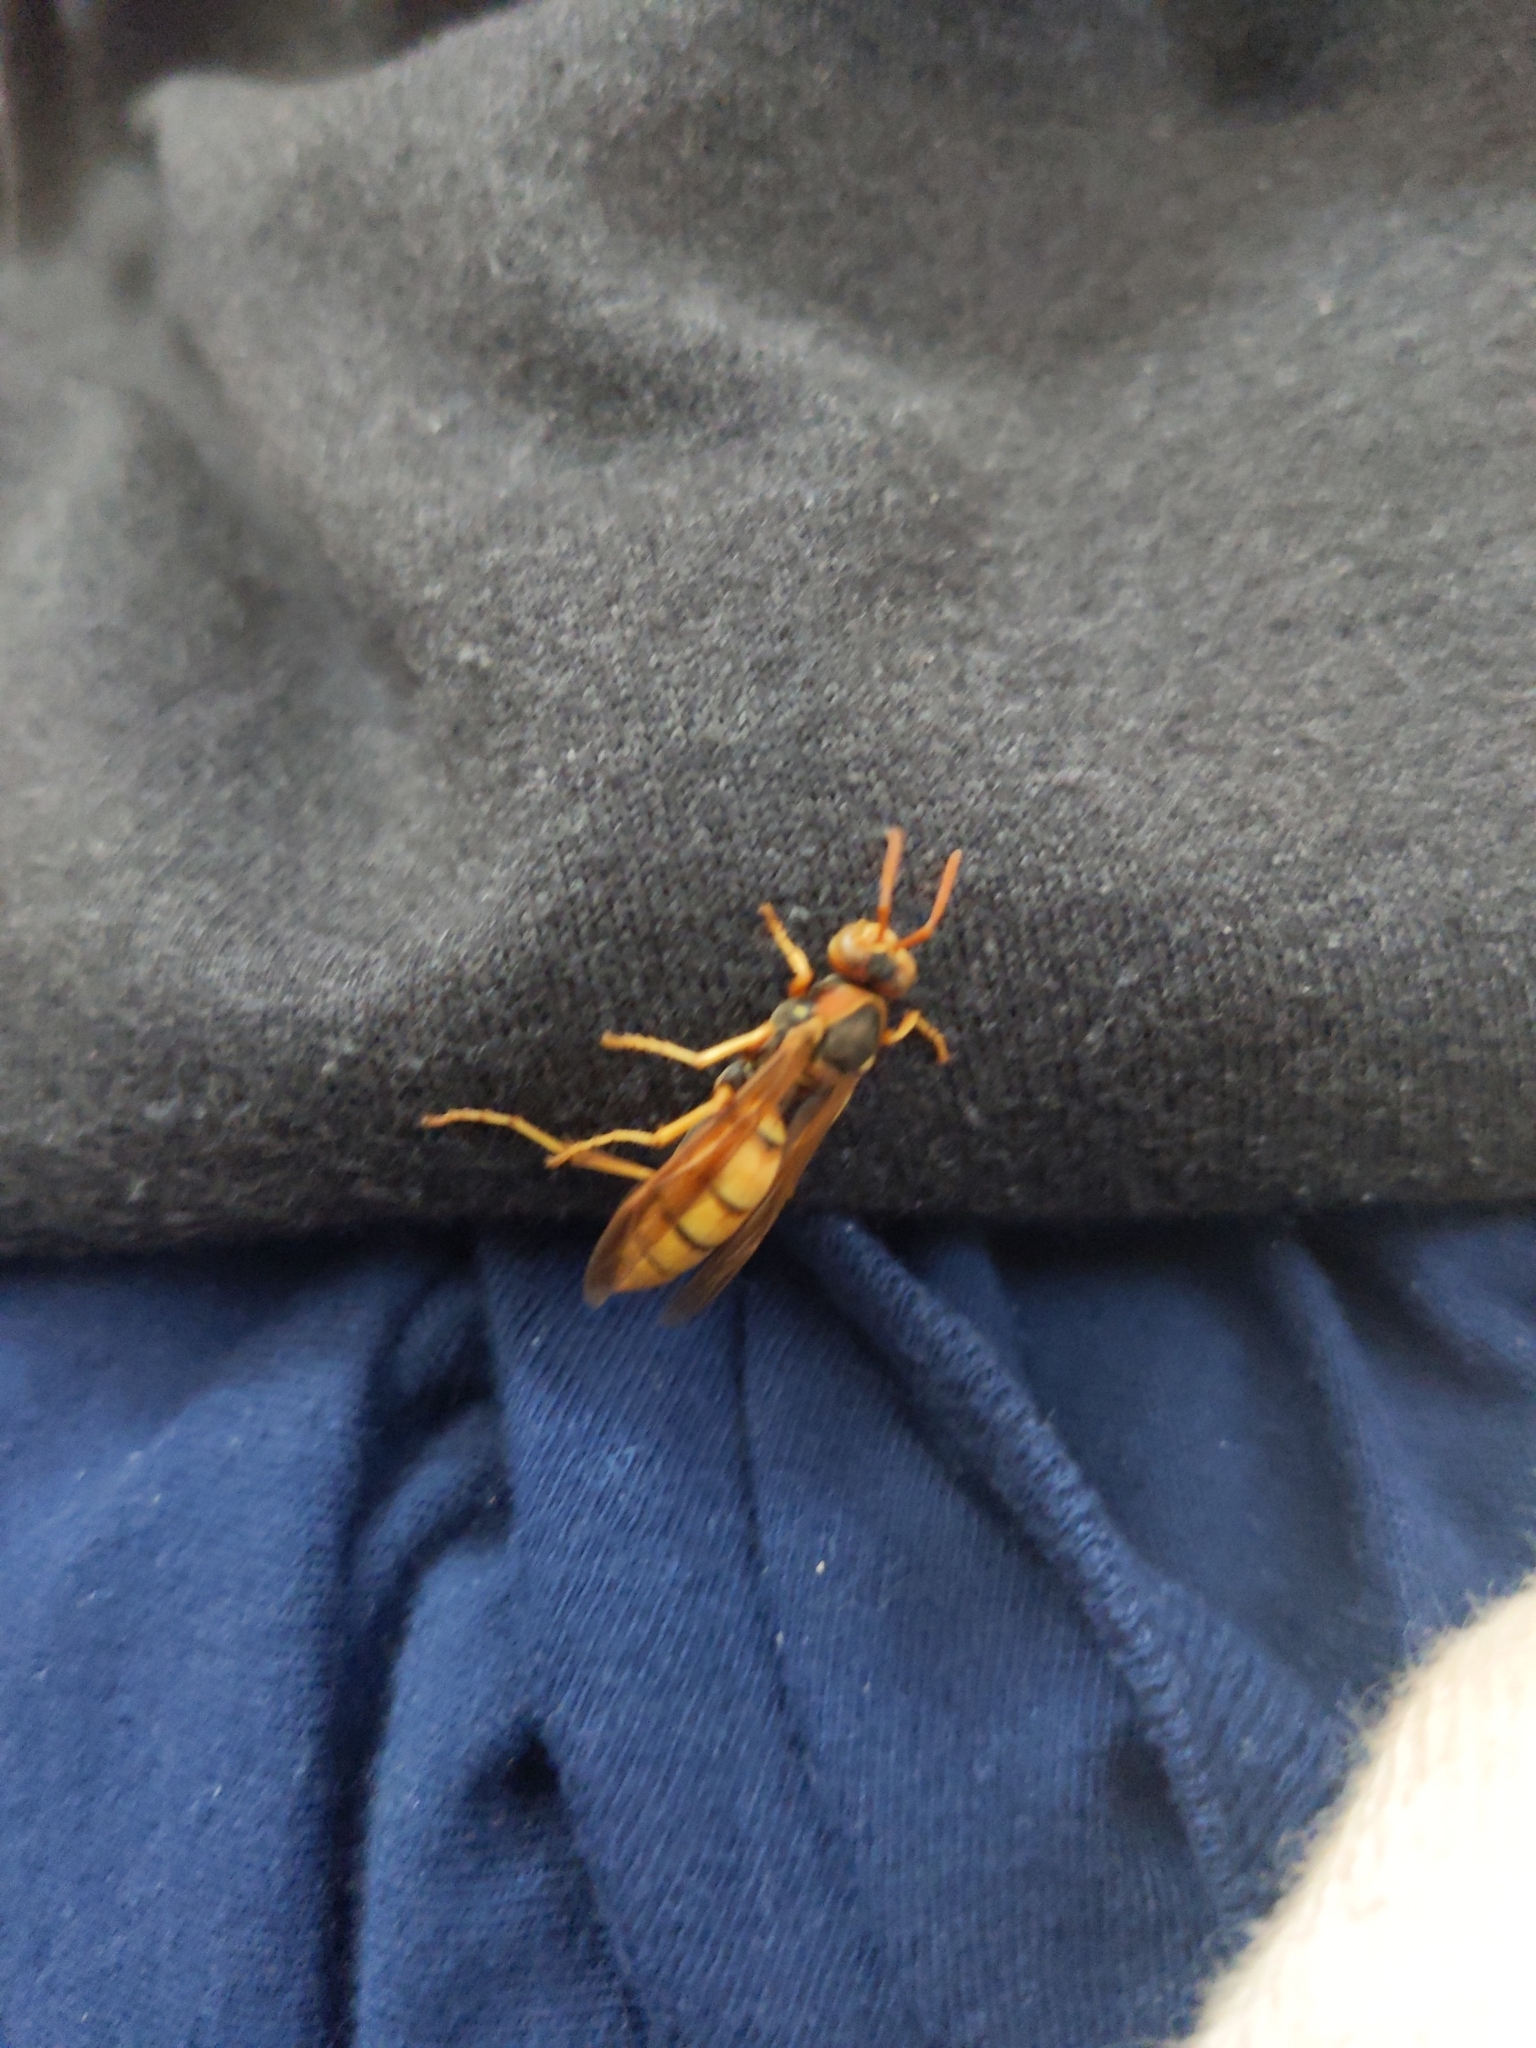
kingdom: Animalia
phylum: Arthropoda
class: Insecta
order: Hymenoptera
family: Eumenidae
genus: Polistes
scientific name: Polistes aurifer
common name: Paper wasp
